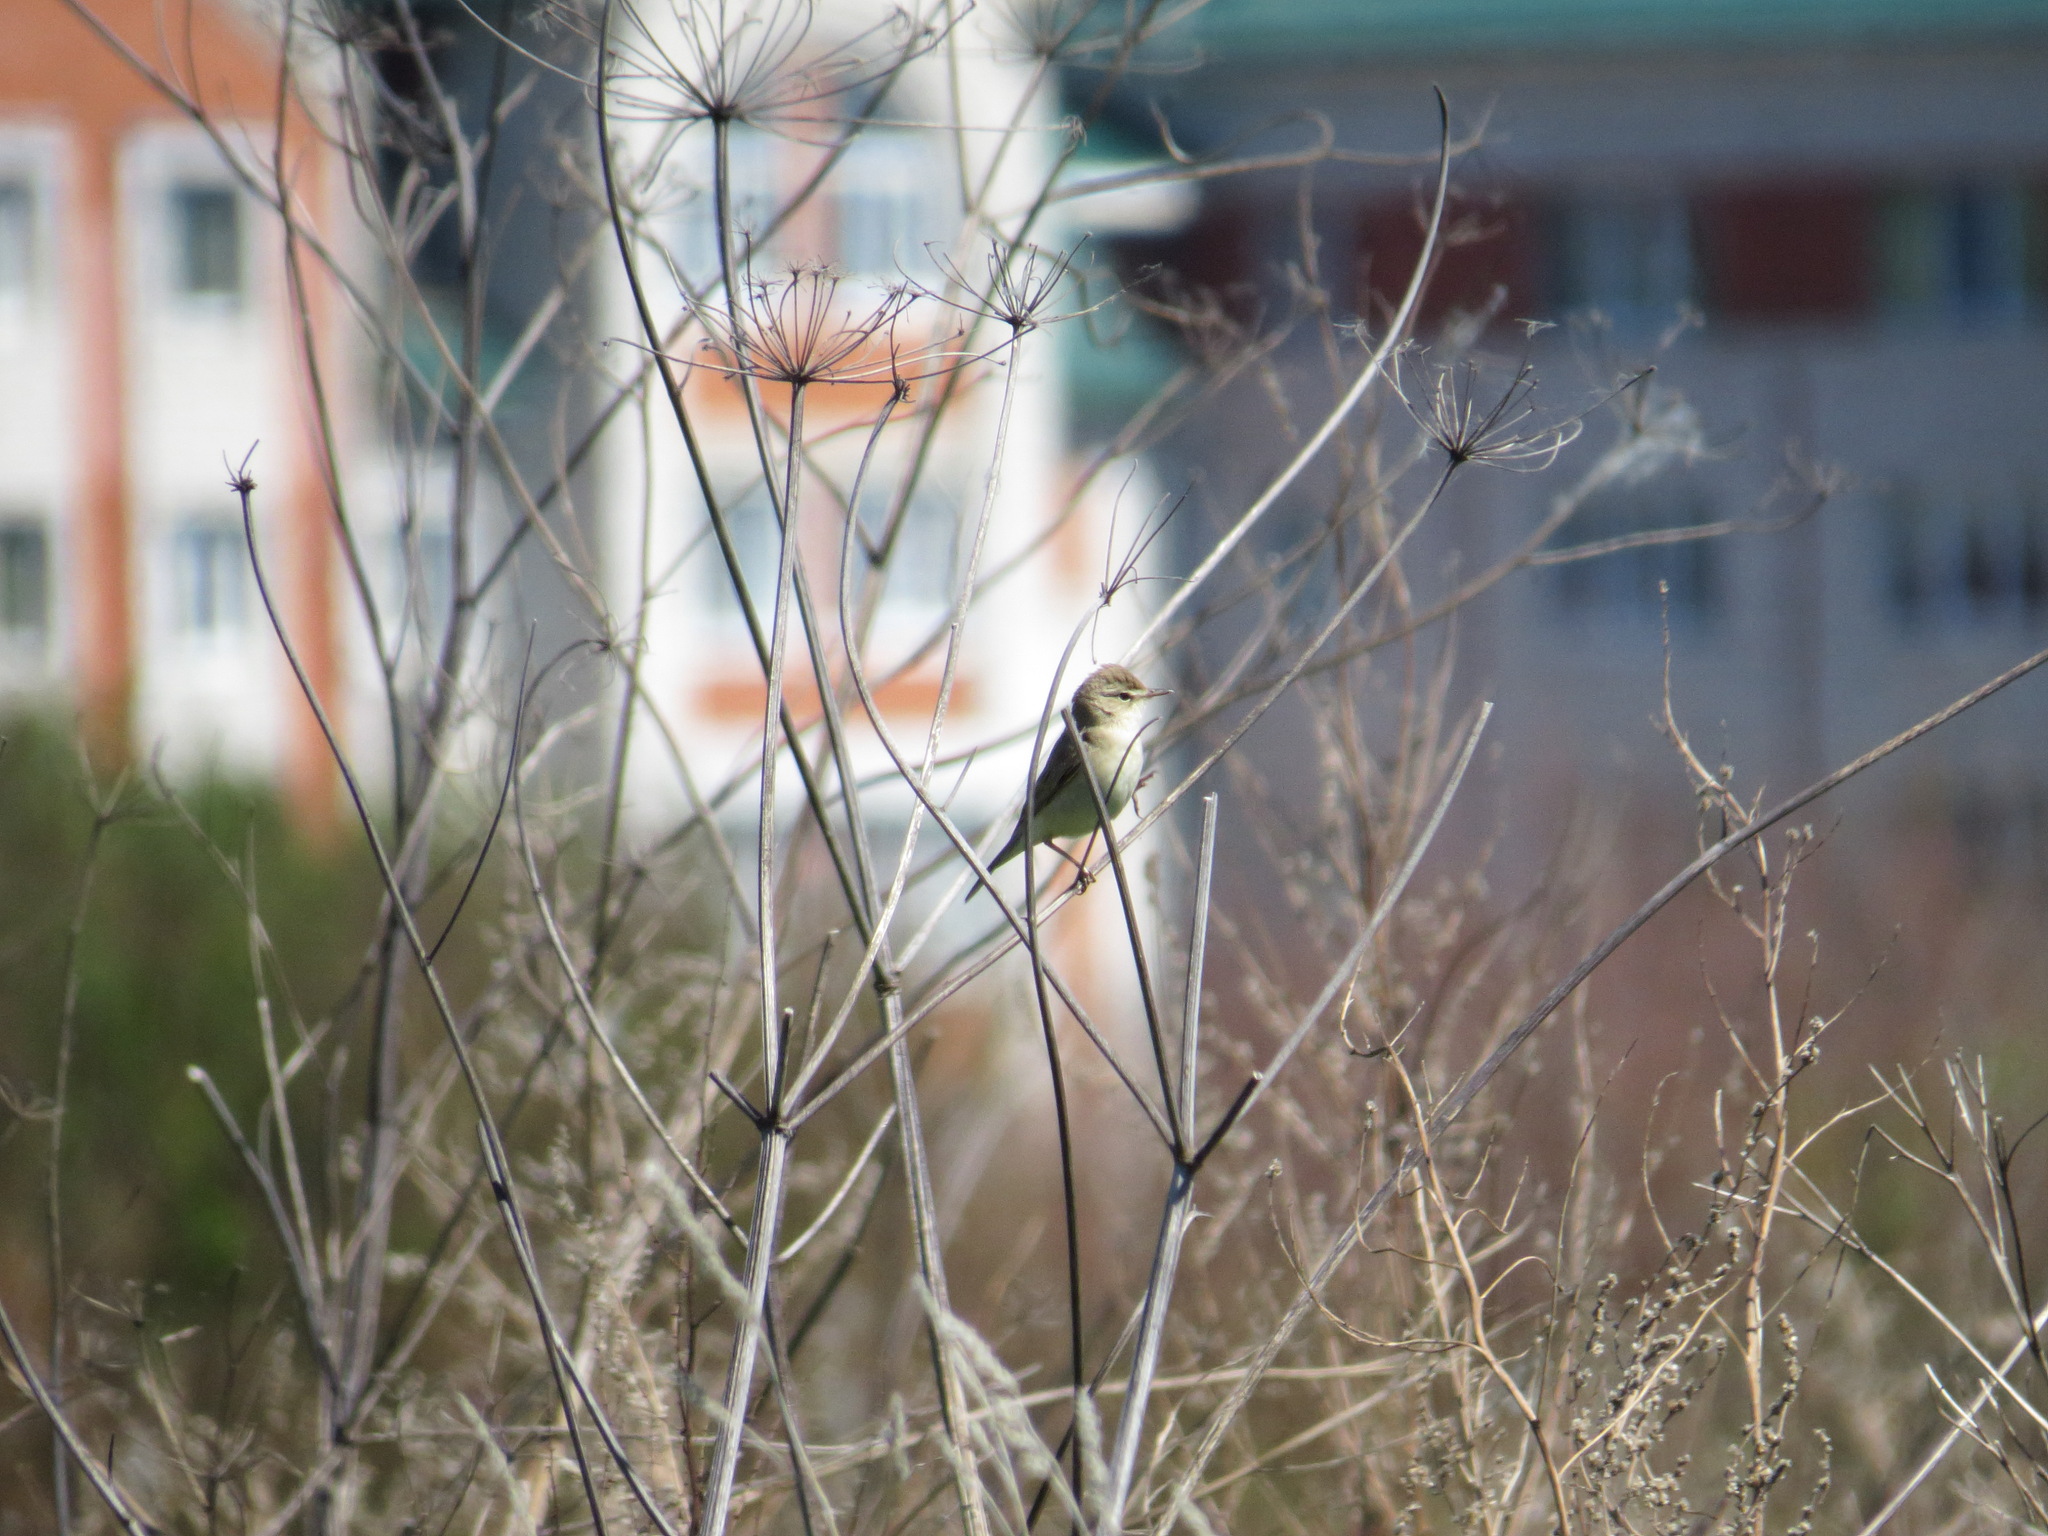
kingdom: Animalia
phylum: Chordata
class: Aves
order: Passeriformes
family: Acrocephalidae
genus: Iduna
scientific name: Iduna caligata
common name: Booted warbler
